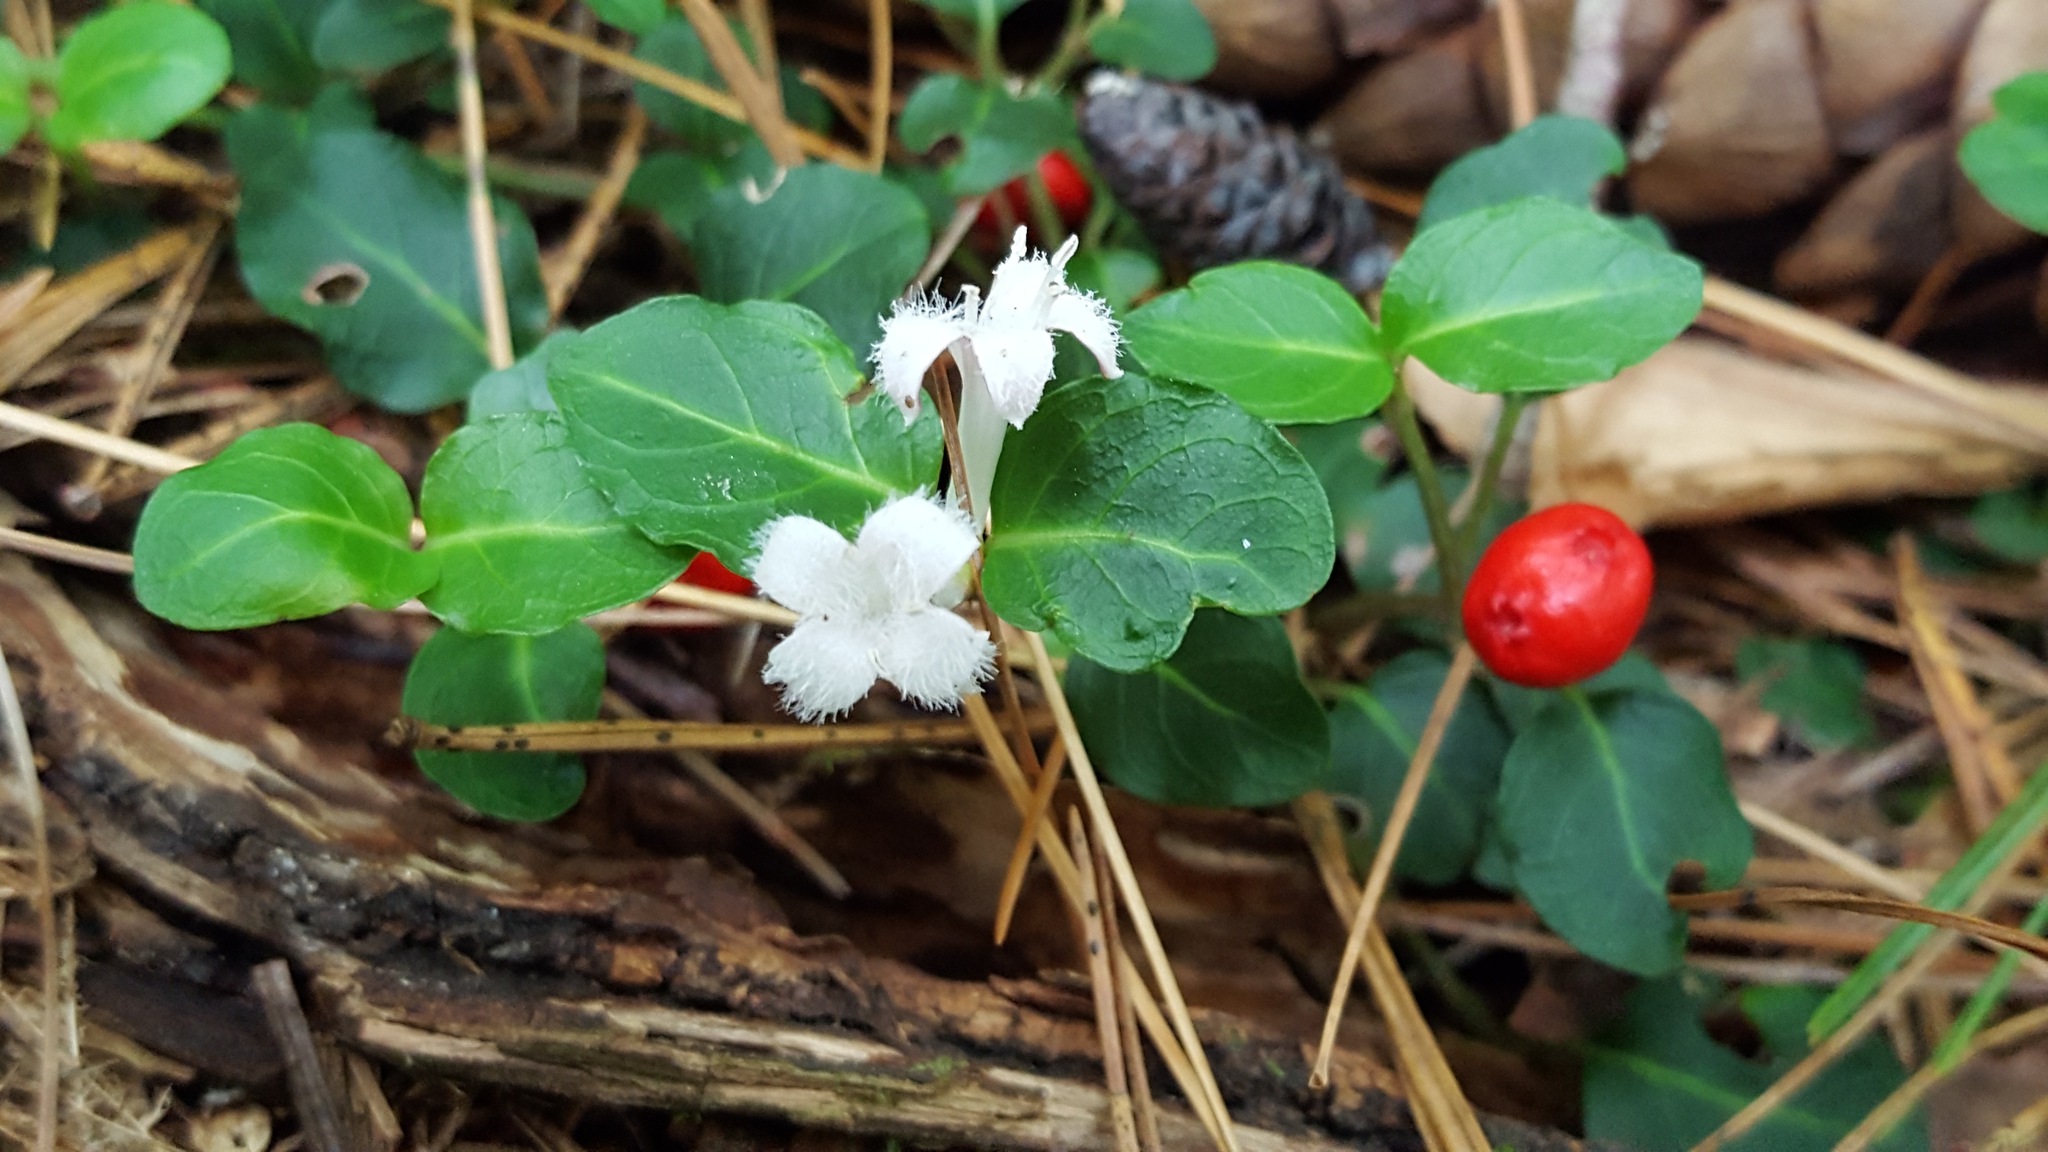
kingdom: Plantae
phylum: Tracheophyta
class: Magnoliopsida
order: Gentianales
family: Rubiaceae
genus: Mitchella
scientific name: Mitchella repens
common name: Partridge-berry
